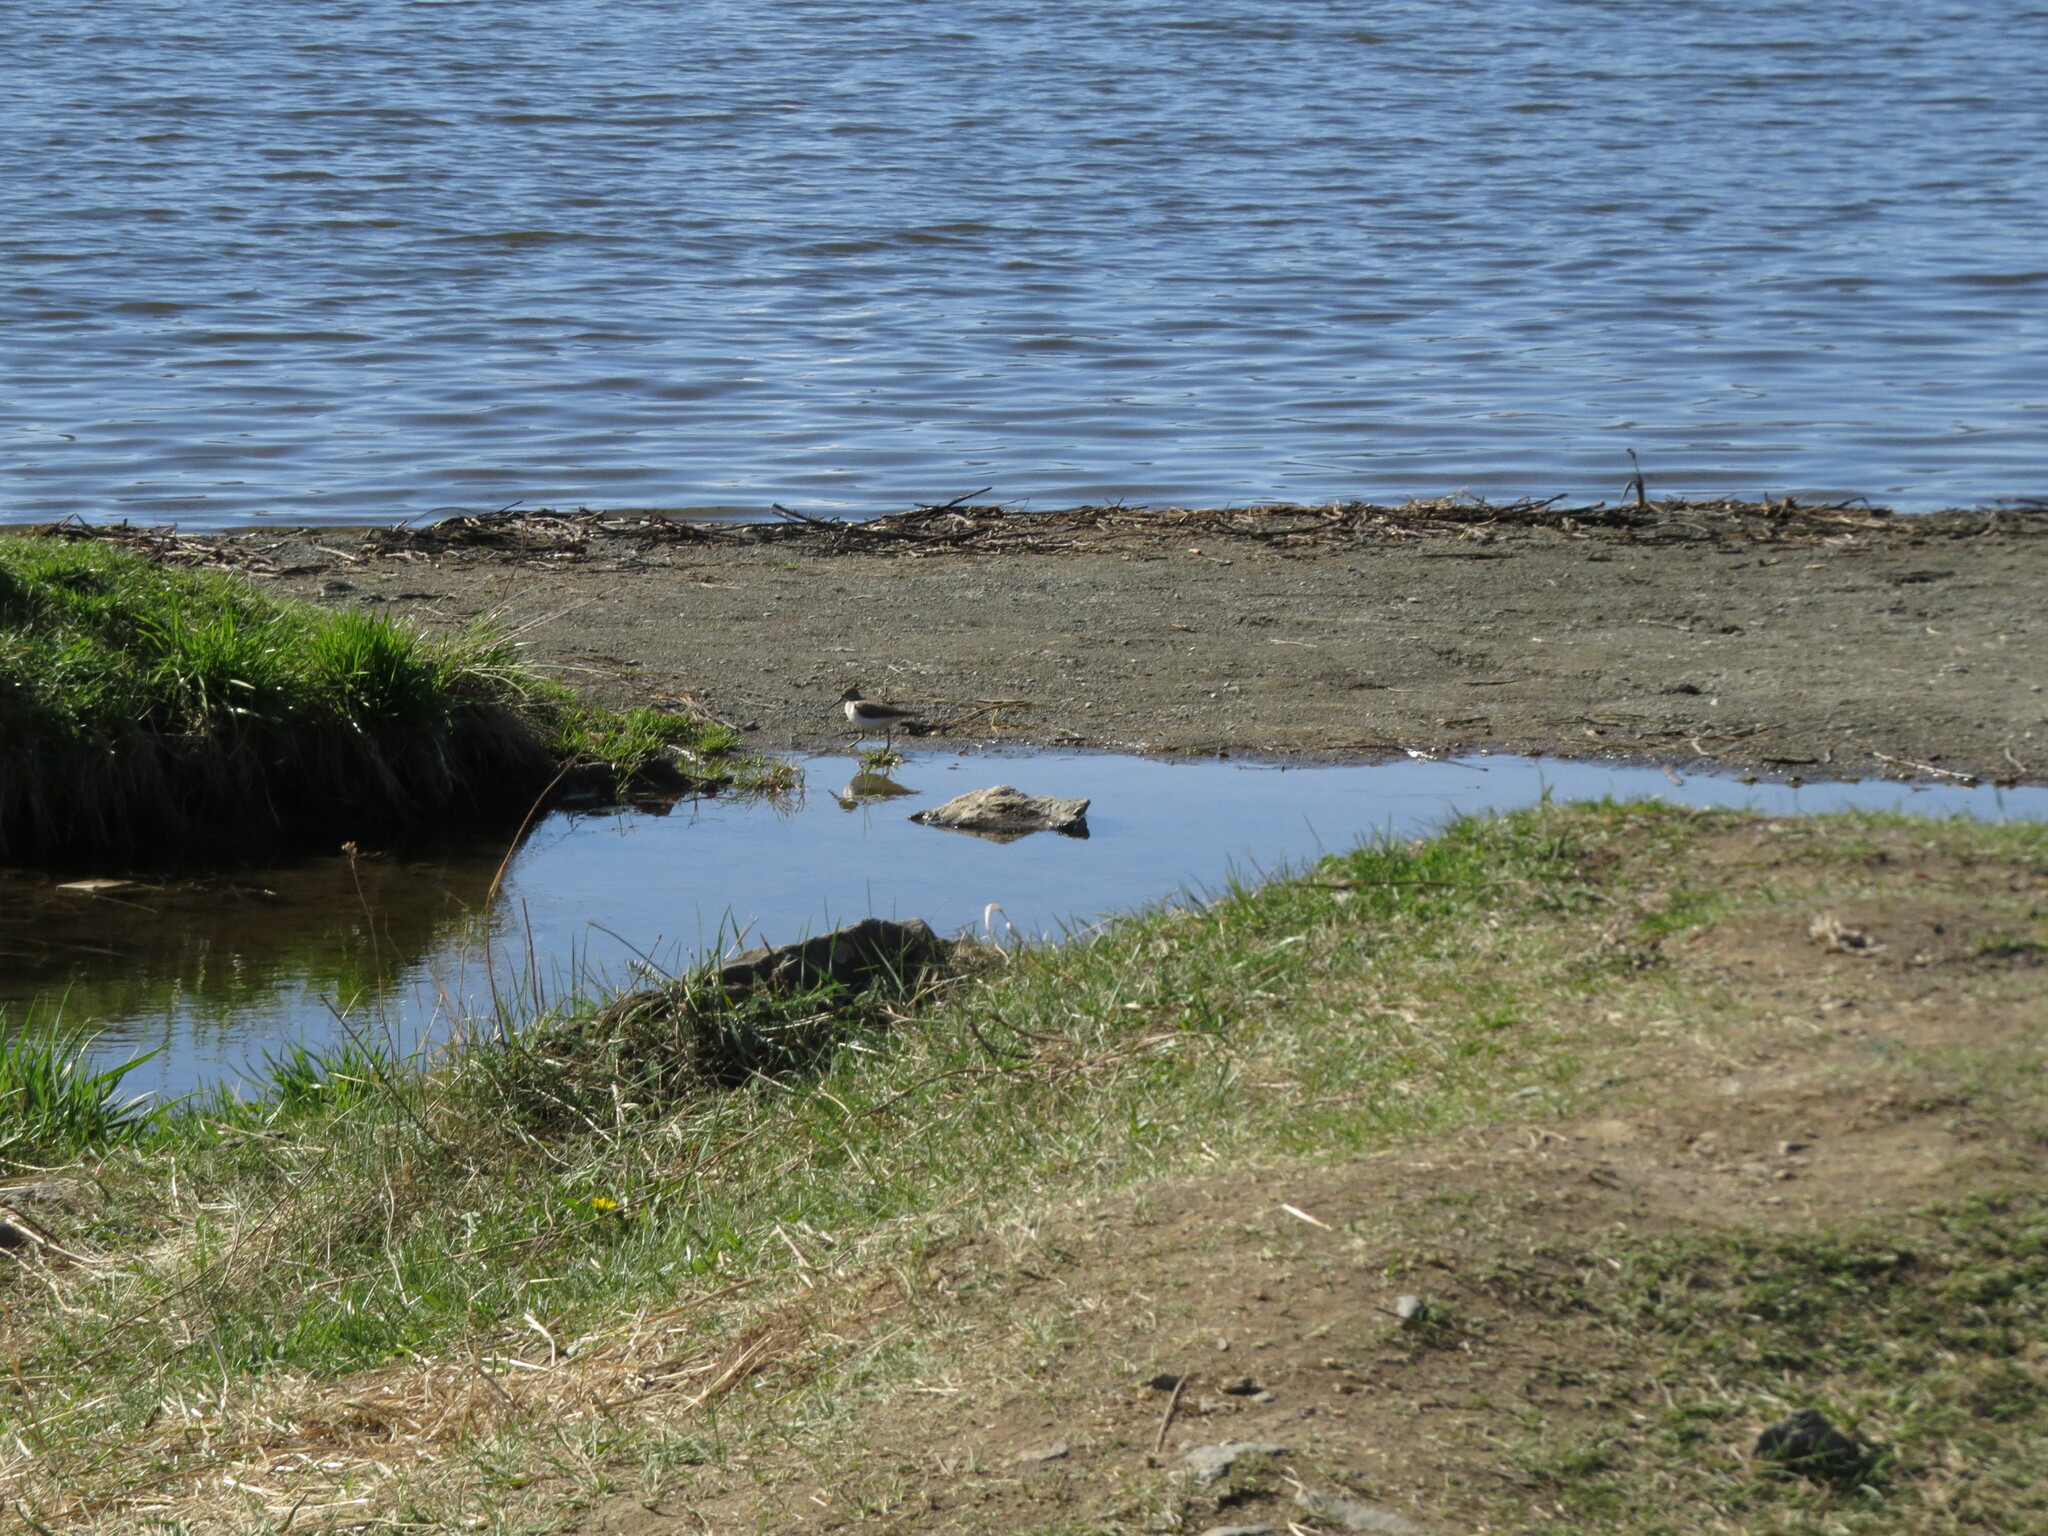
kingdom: Animalia
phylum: Chordata
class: Aves
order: Charadriiformes
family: Scolopacidae
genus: Actitis
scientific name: Actitis hypoleucos
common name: Common sandpiper
